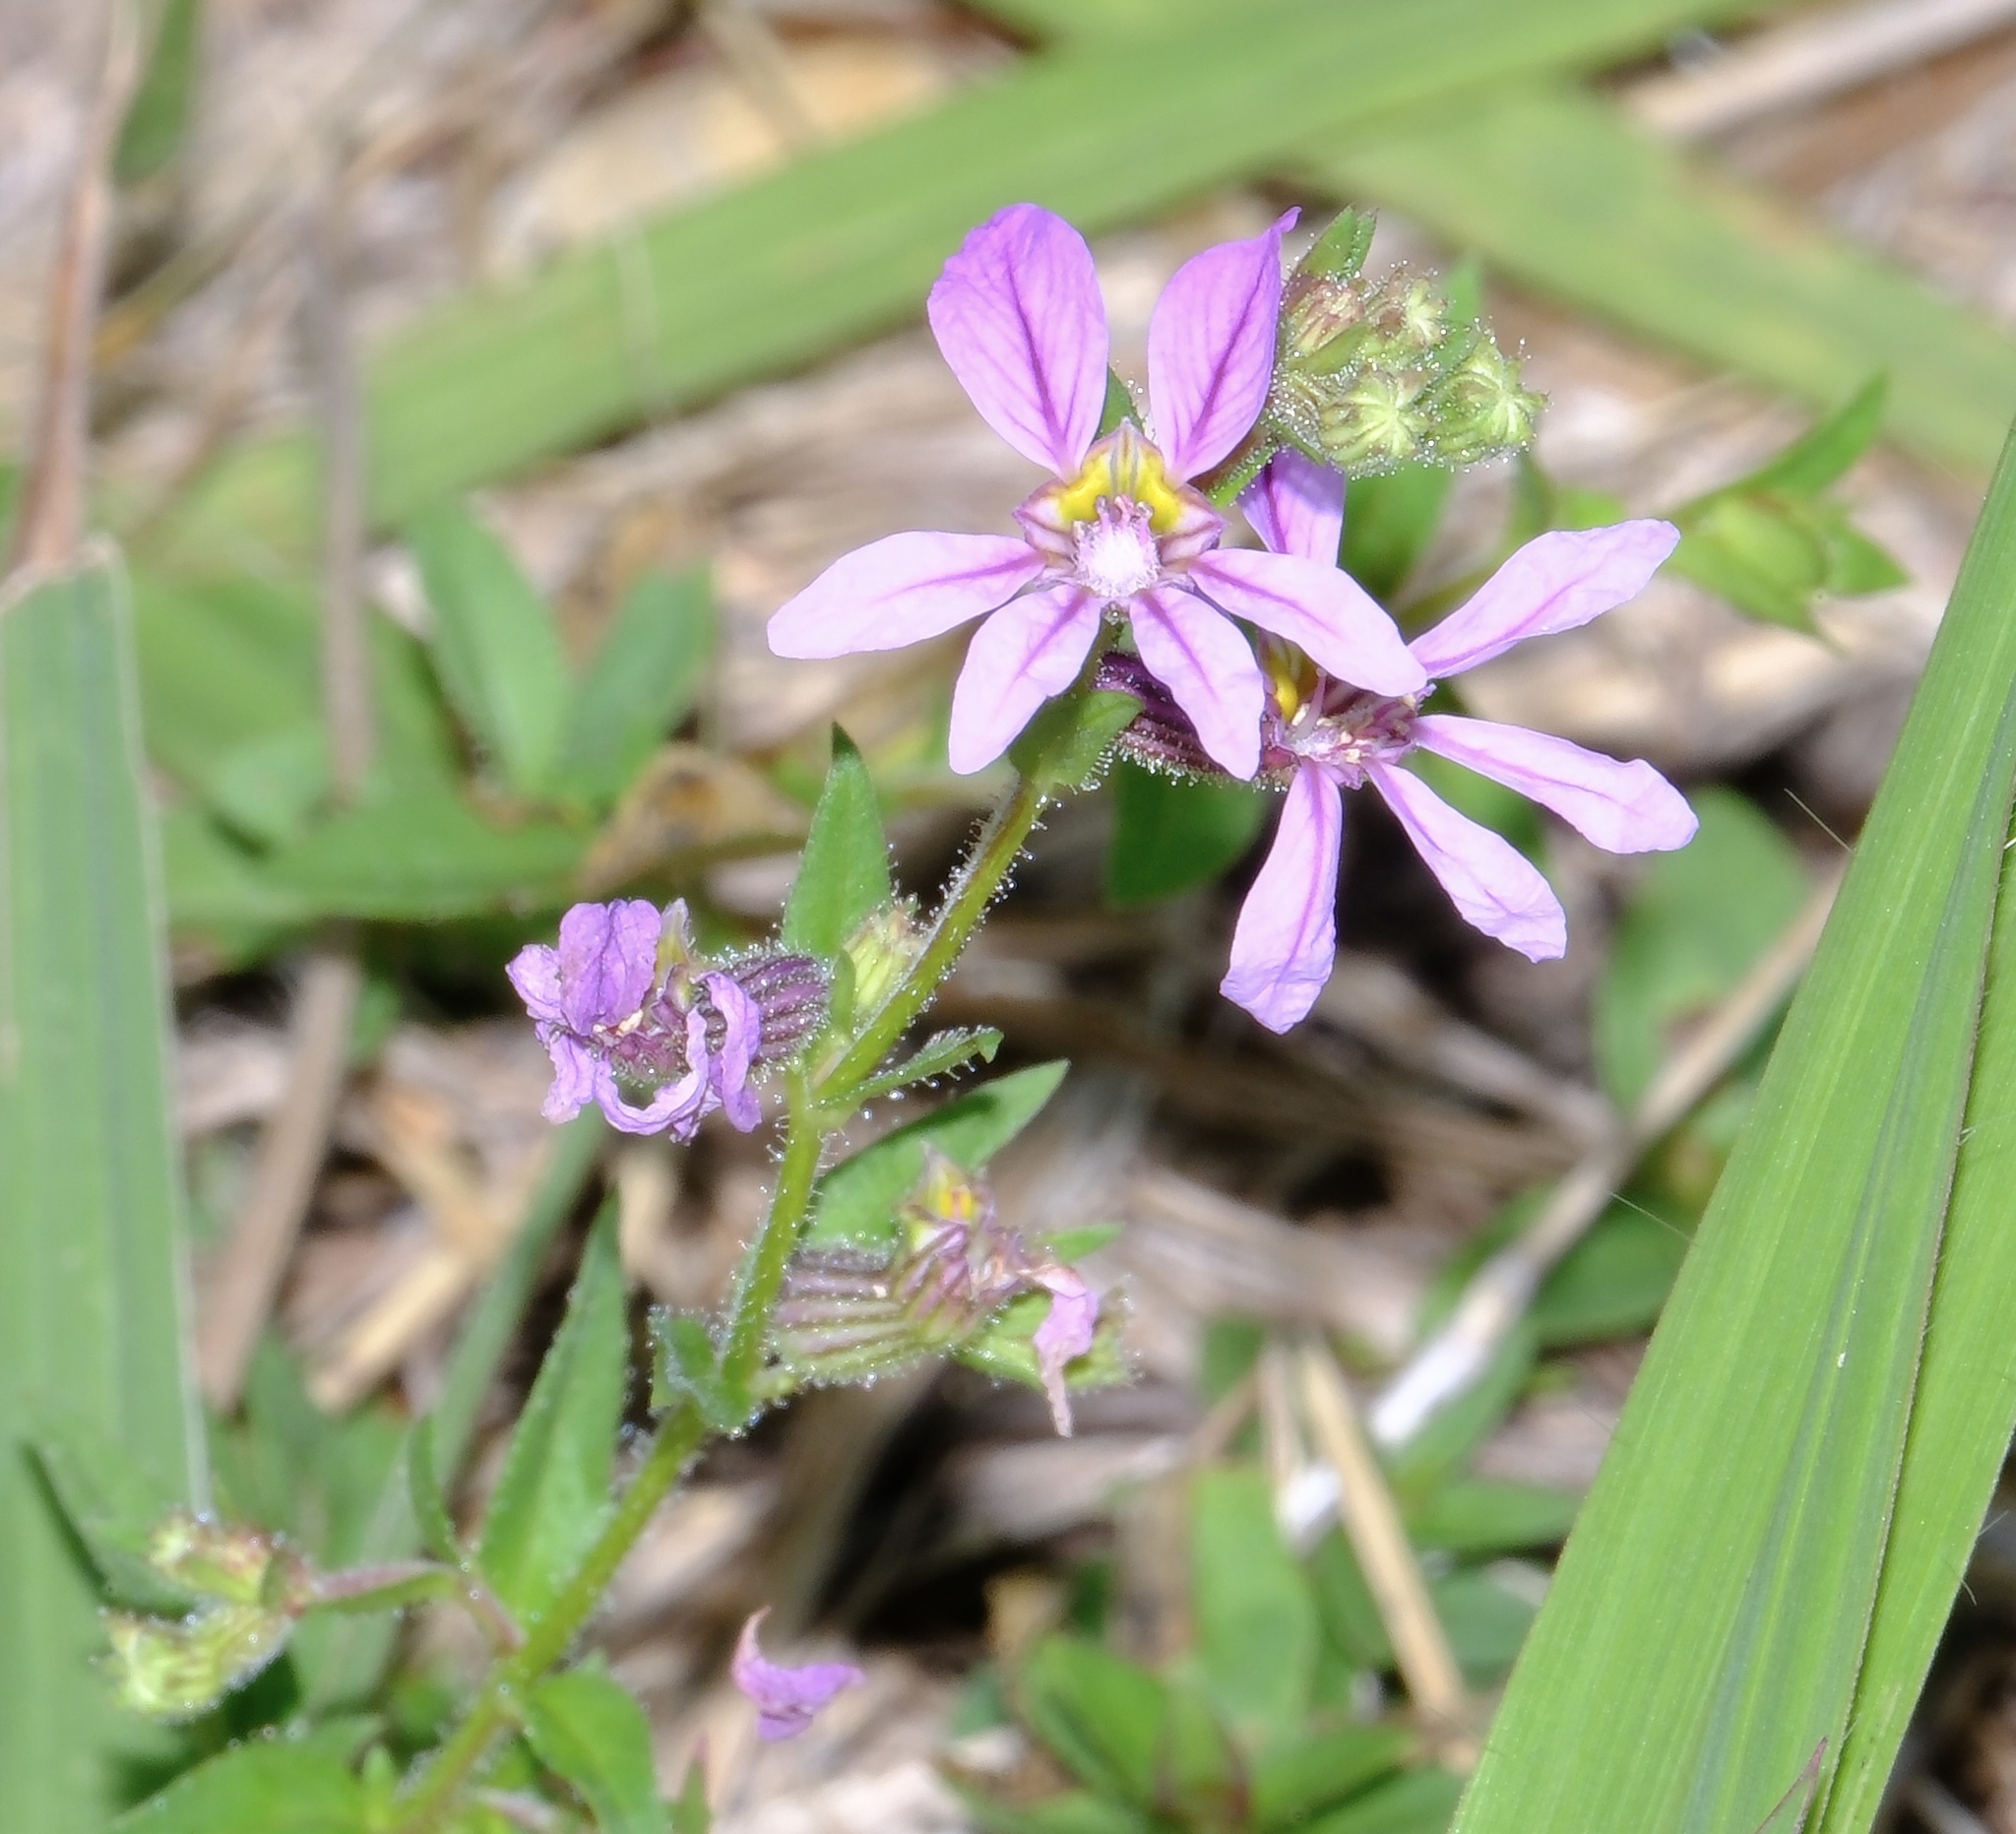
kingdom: Plantae
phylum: Tracheophyta
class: Magnoliopsida
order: Myrtales
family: Lythraceae
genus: Cuphea
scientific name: Cuphea glutinosa
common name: Sticky waxweed
